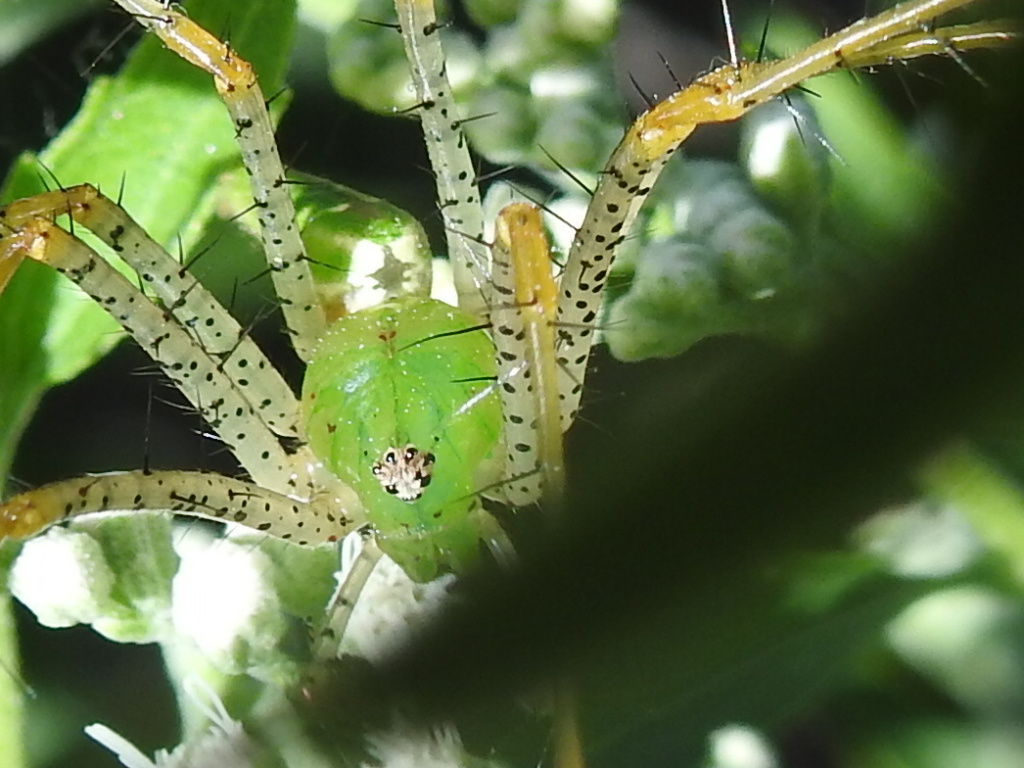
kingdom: Animalia
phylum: Arthropoda
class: Arachnida
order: Araneae
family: Oxyopidae
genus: Peucetia
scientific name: Peucetia viridans
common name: Lynx spiders
